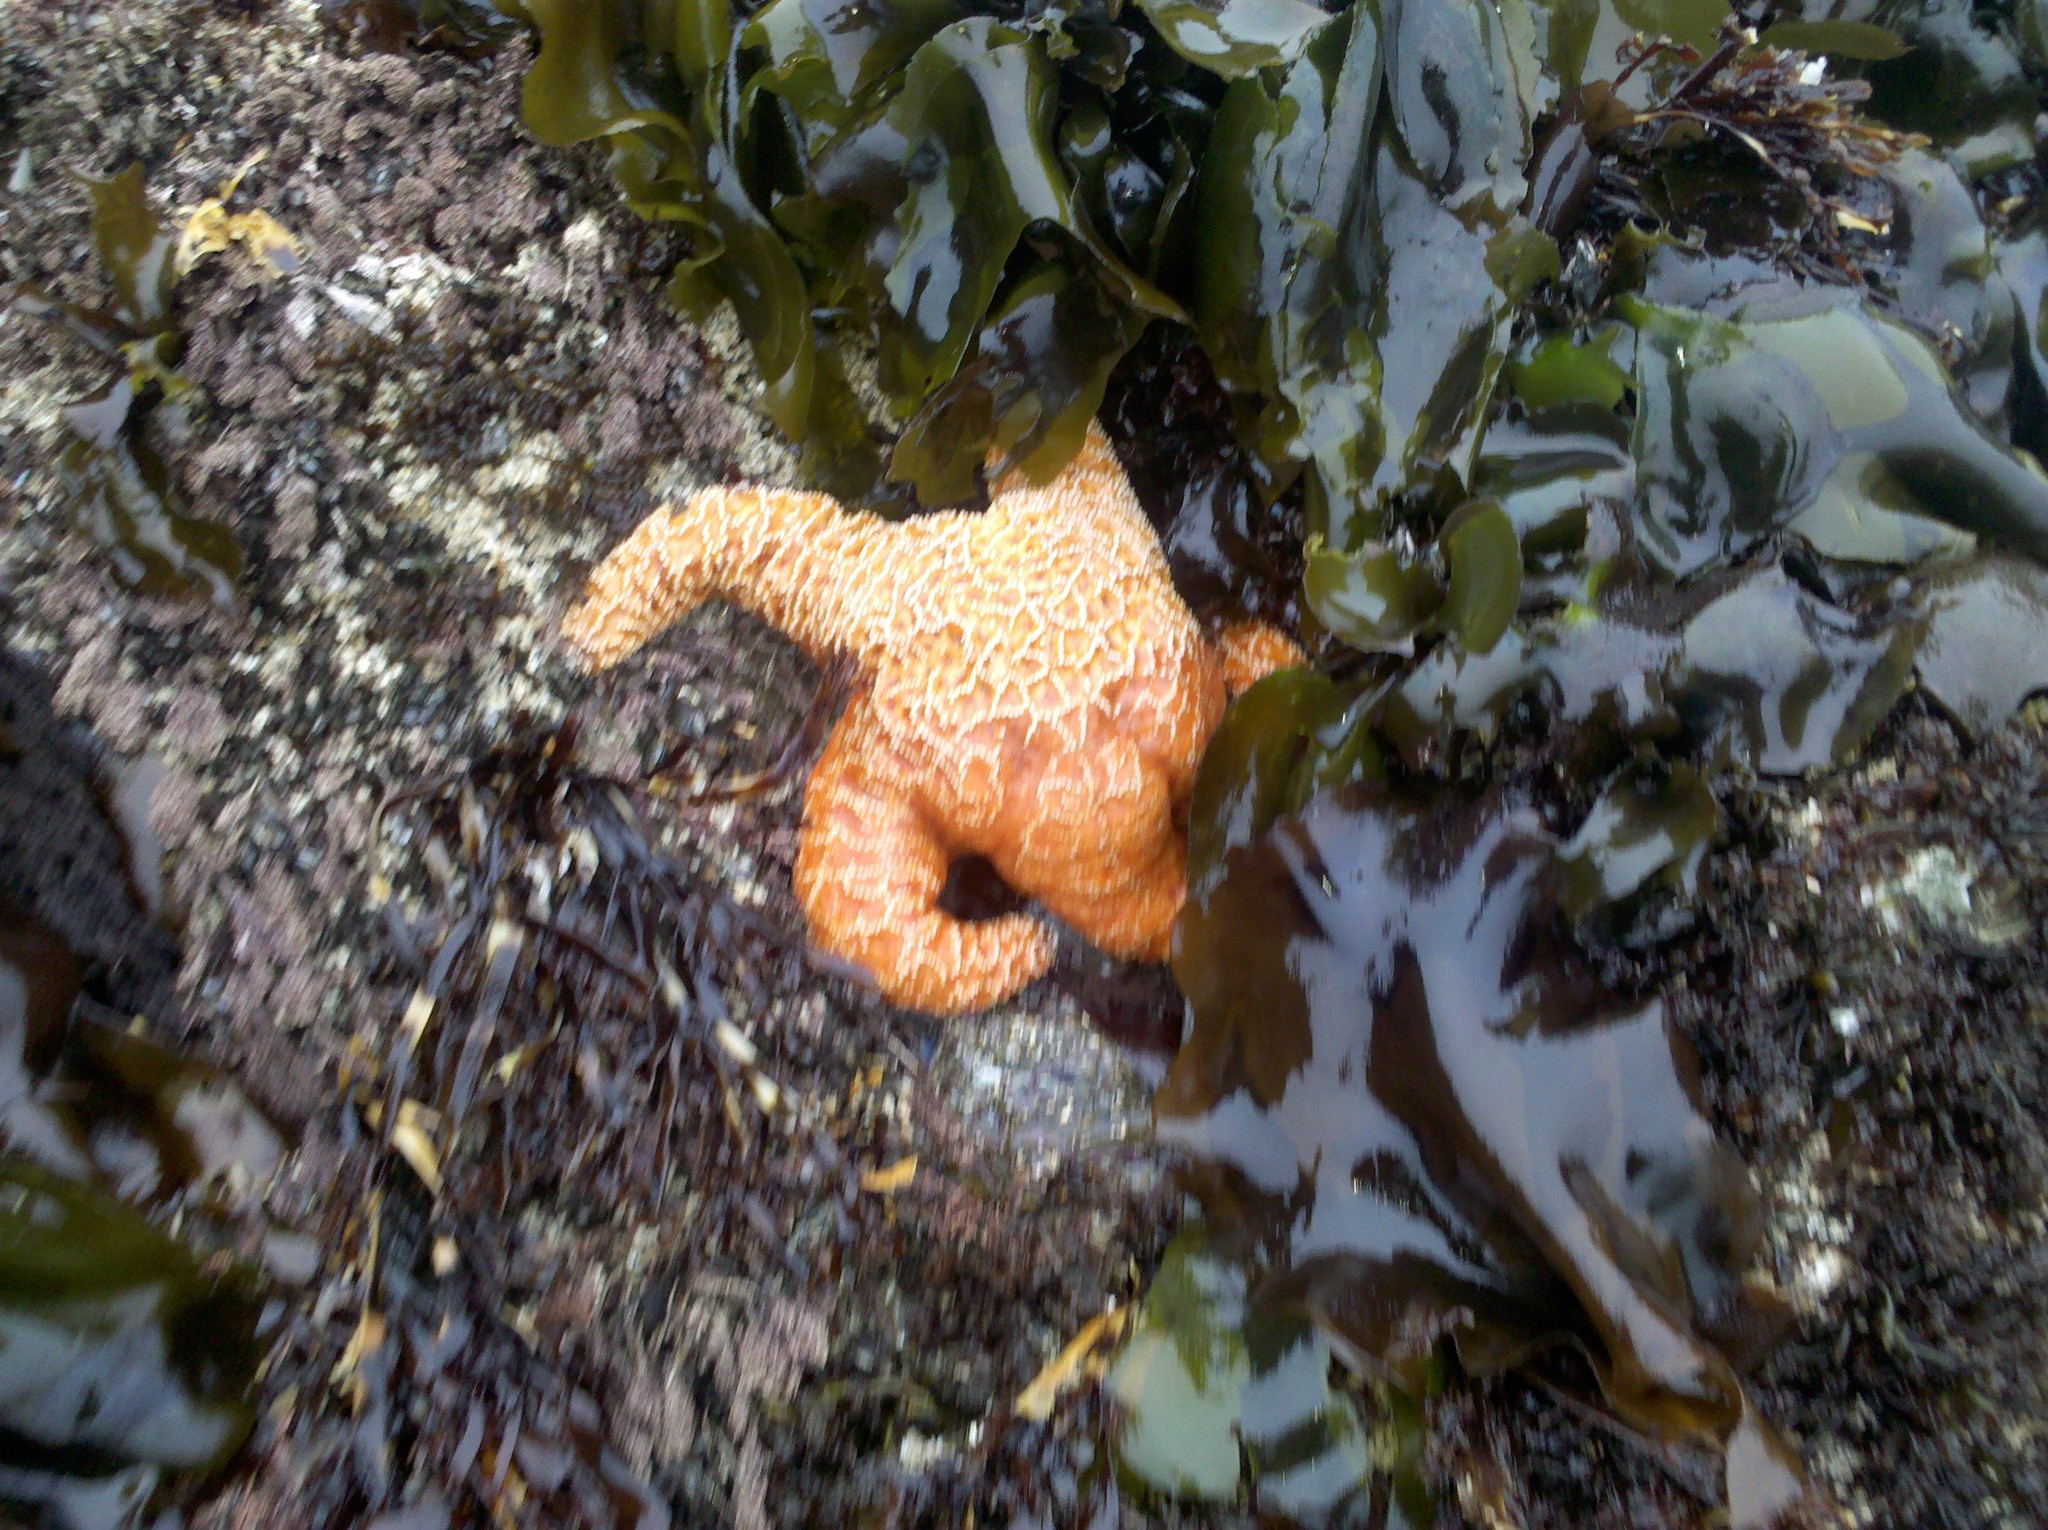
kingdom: Animalia
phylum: Echinodermata
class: Asteroidea
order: Forcipulatida
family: Asteriidae
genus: Pisaster
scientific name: Pisaster ochraceus
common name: Ochre stars
